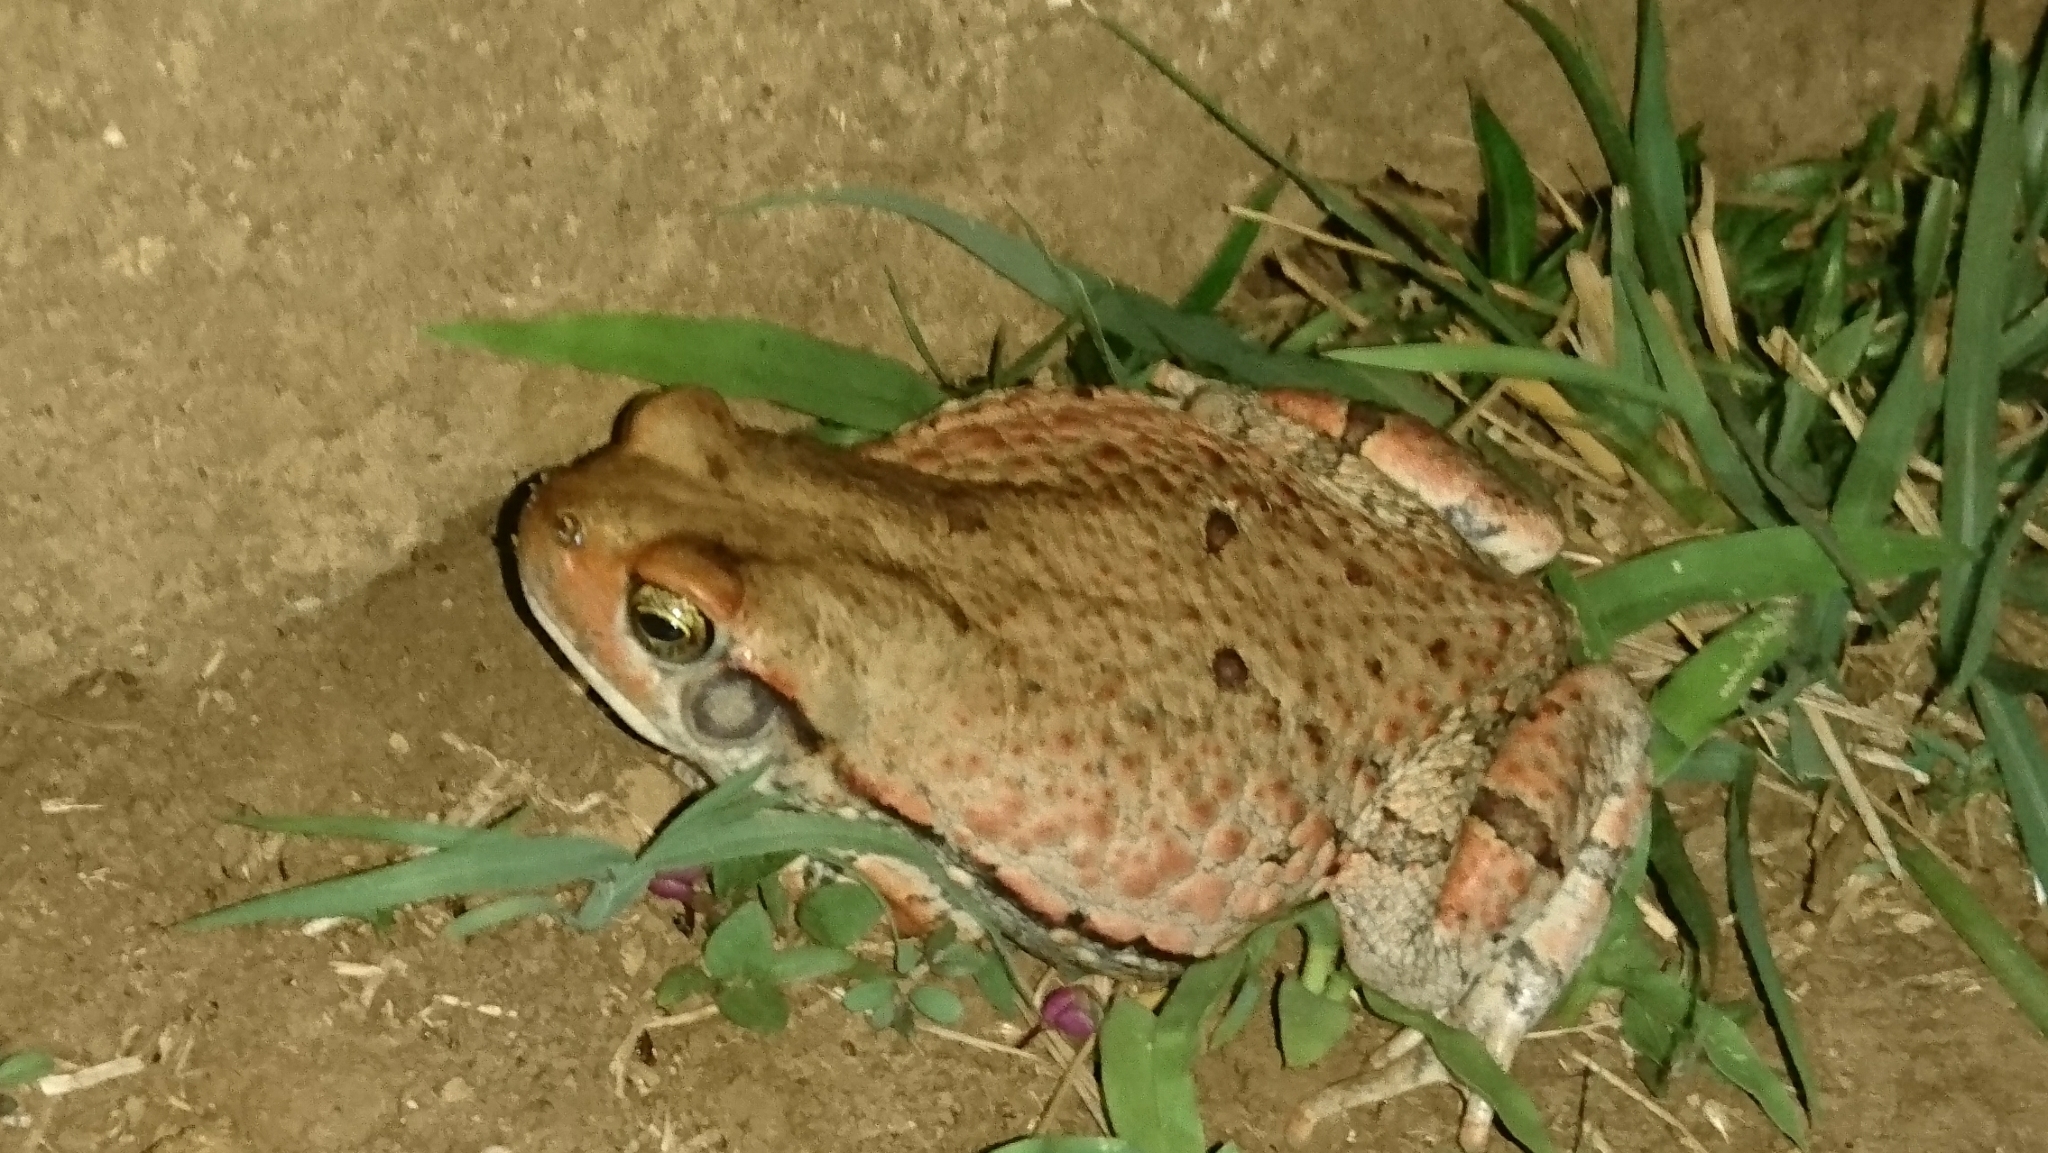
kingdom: Animalia
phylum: Chordata
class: Amphibia
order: Anura
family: Bufonidae
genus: Schismaderma
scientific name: Schismaderma carens
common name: African split-skin toad
